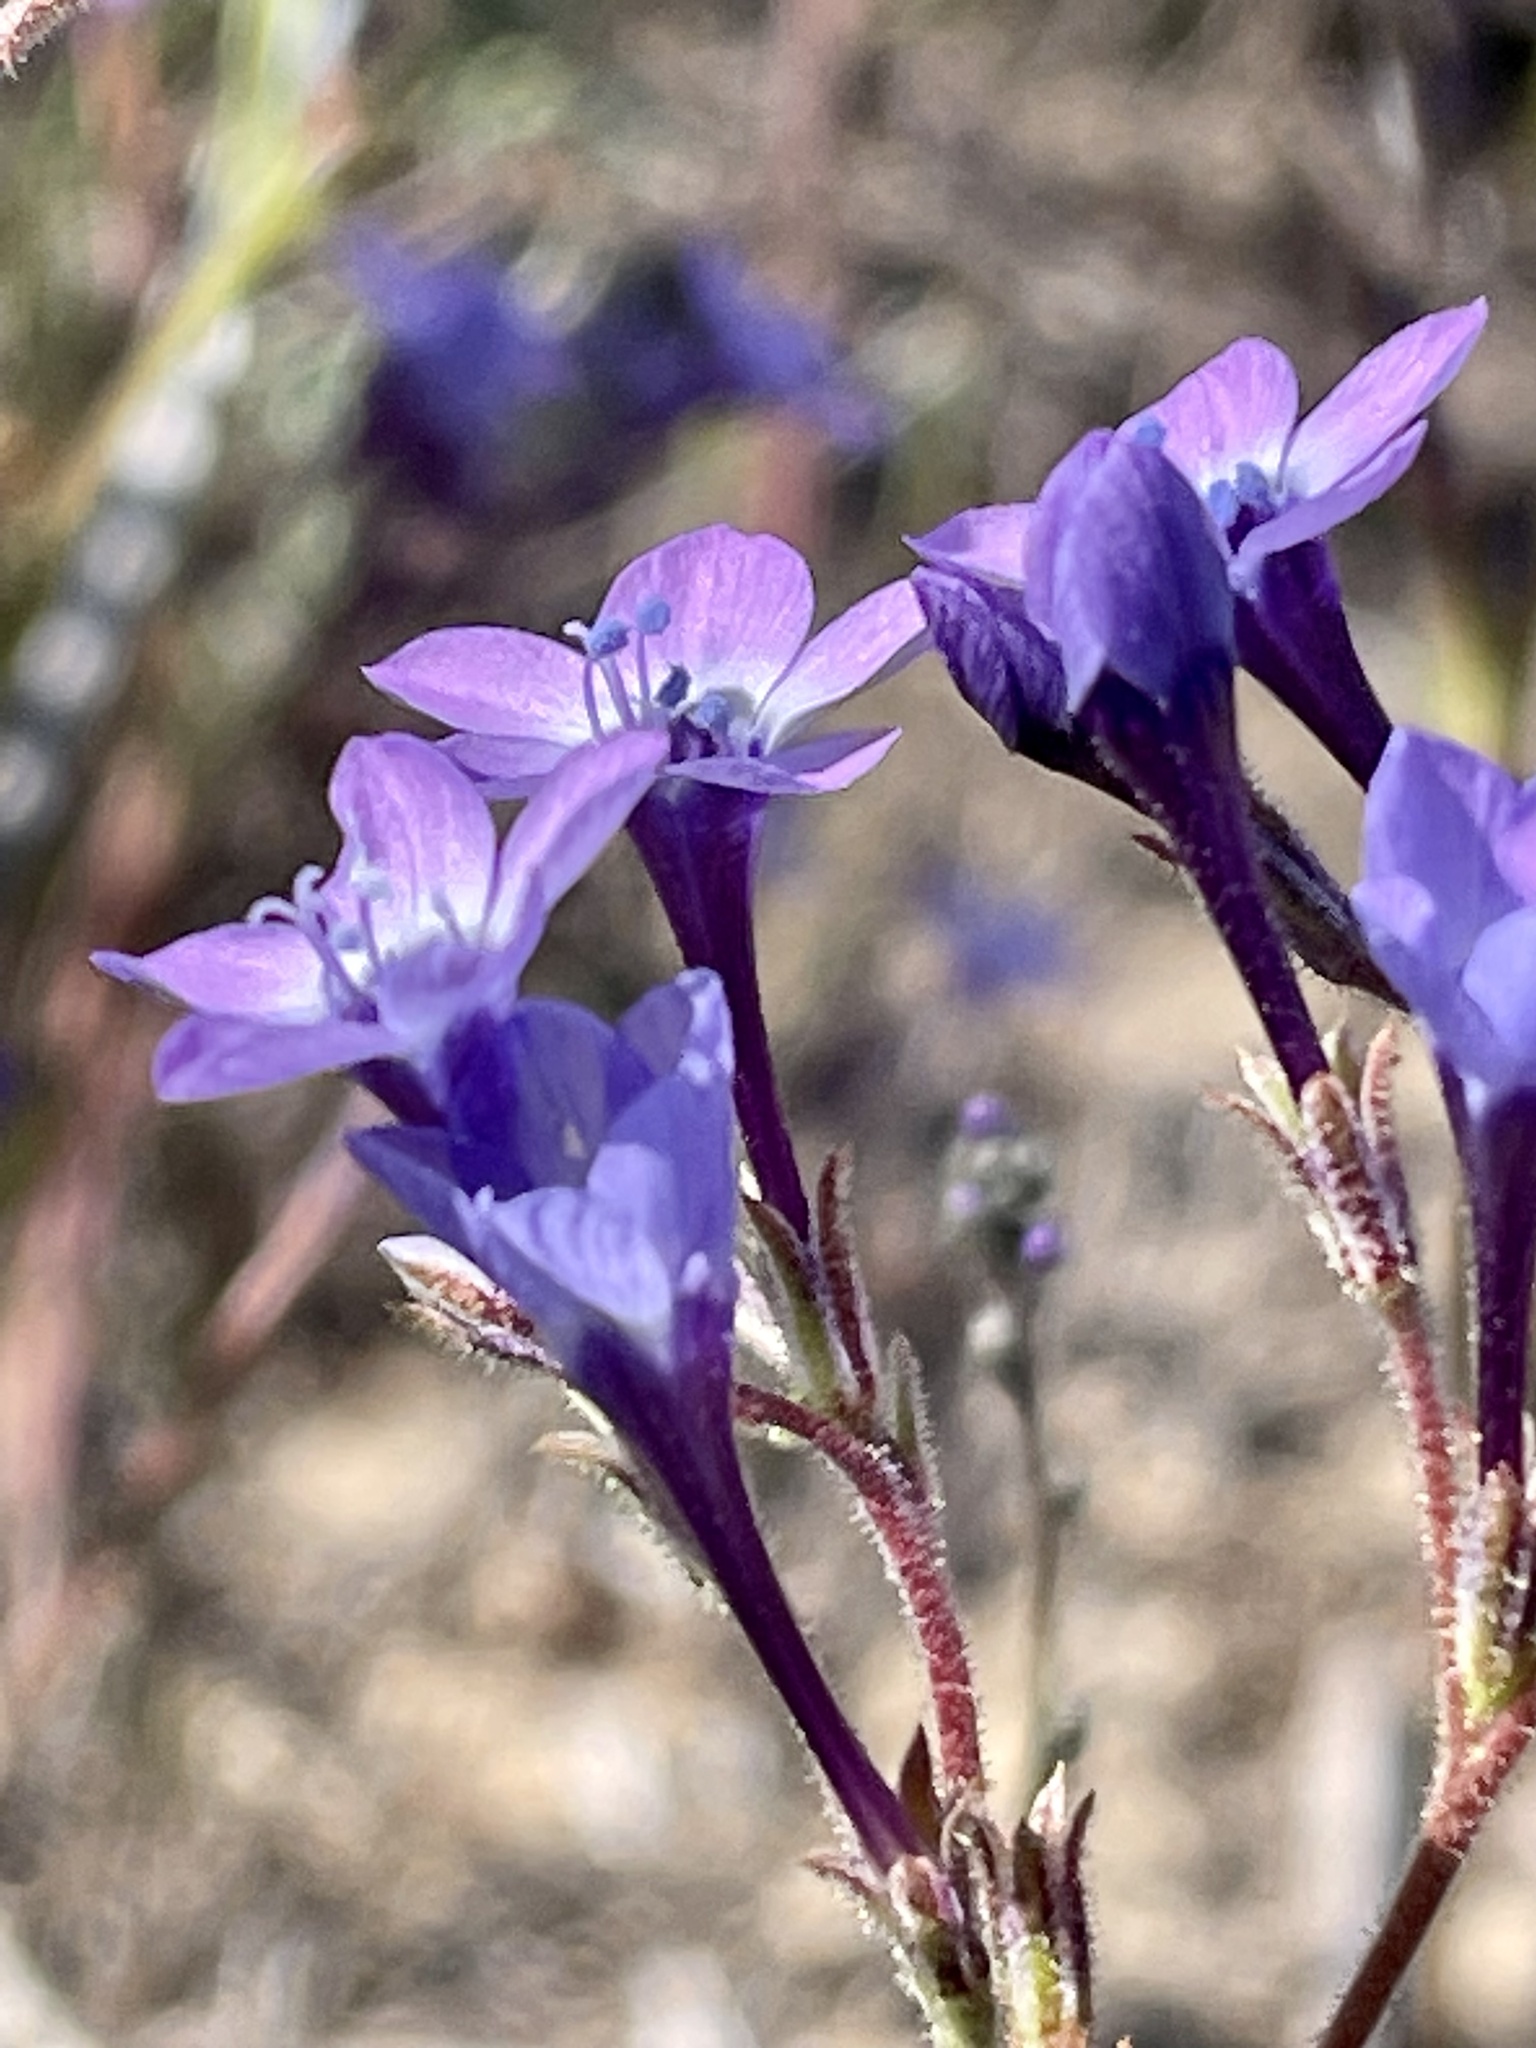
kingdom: Plantae
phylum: Tracheophyta
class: Magnoliopsida
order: Ericales
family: Polemoniaceae
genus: Gilia
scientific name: Gilia tenuiflora
